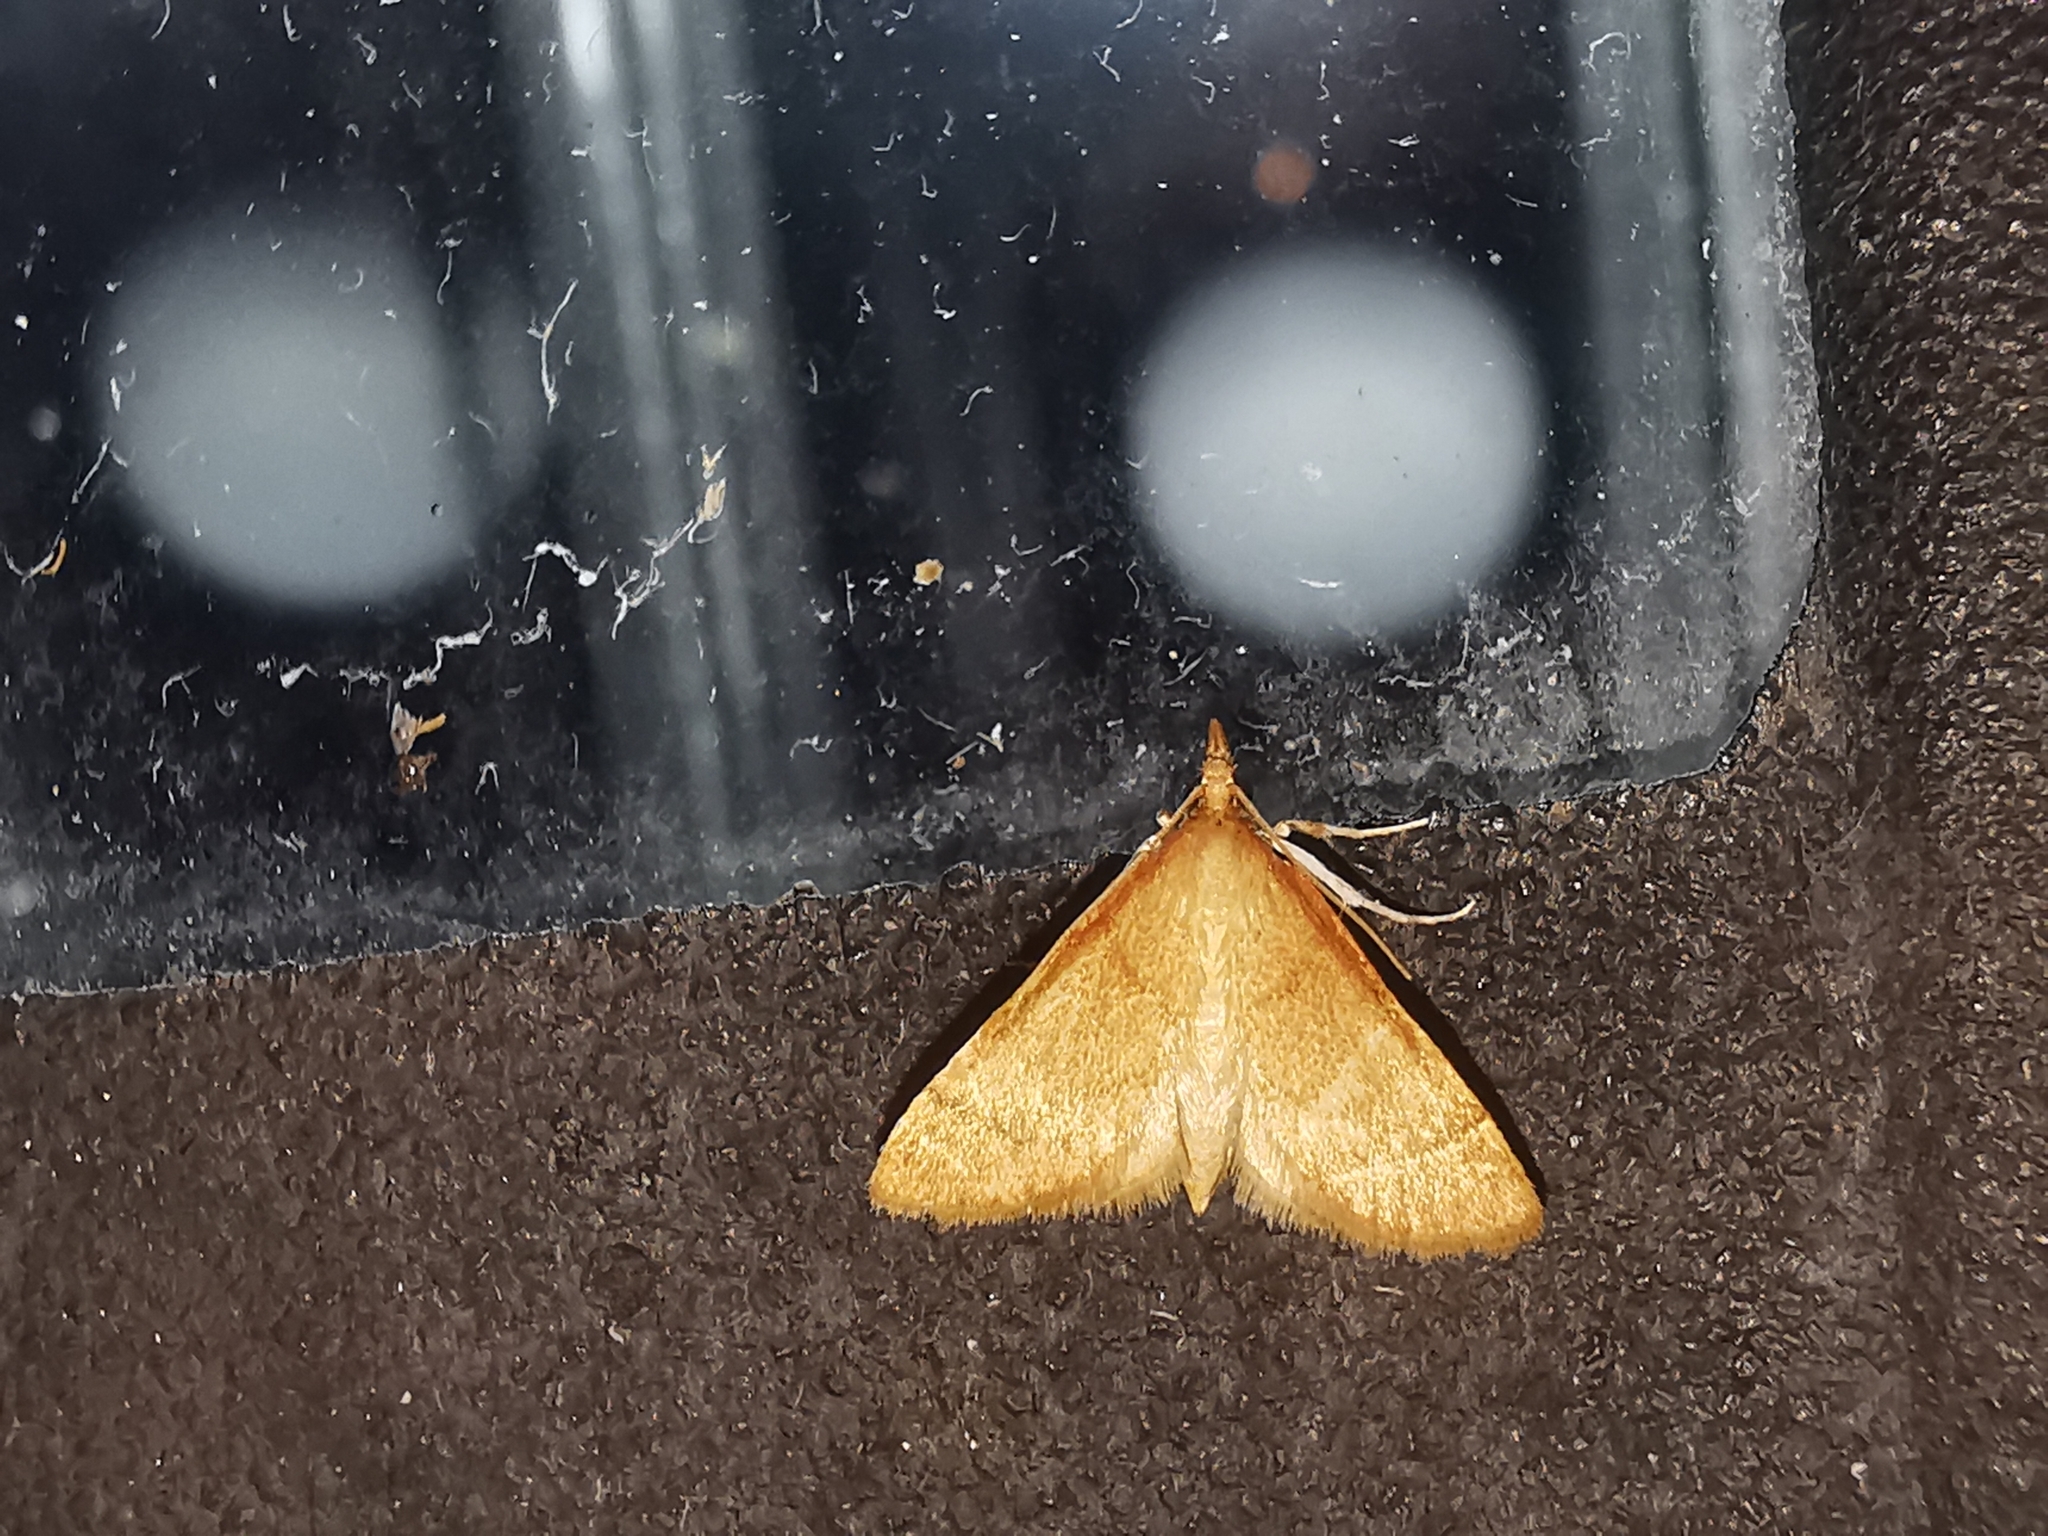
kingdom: Animalia
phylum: Arthropoda
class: Insecta
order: Lepidoptera
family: Crambidae
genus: Metasia
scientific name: Metasia rosealis
